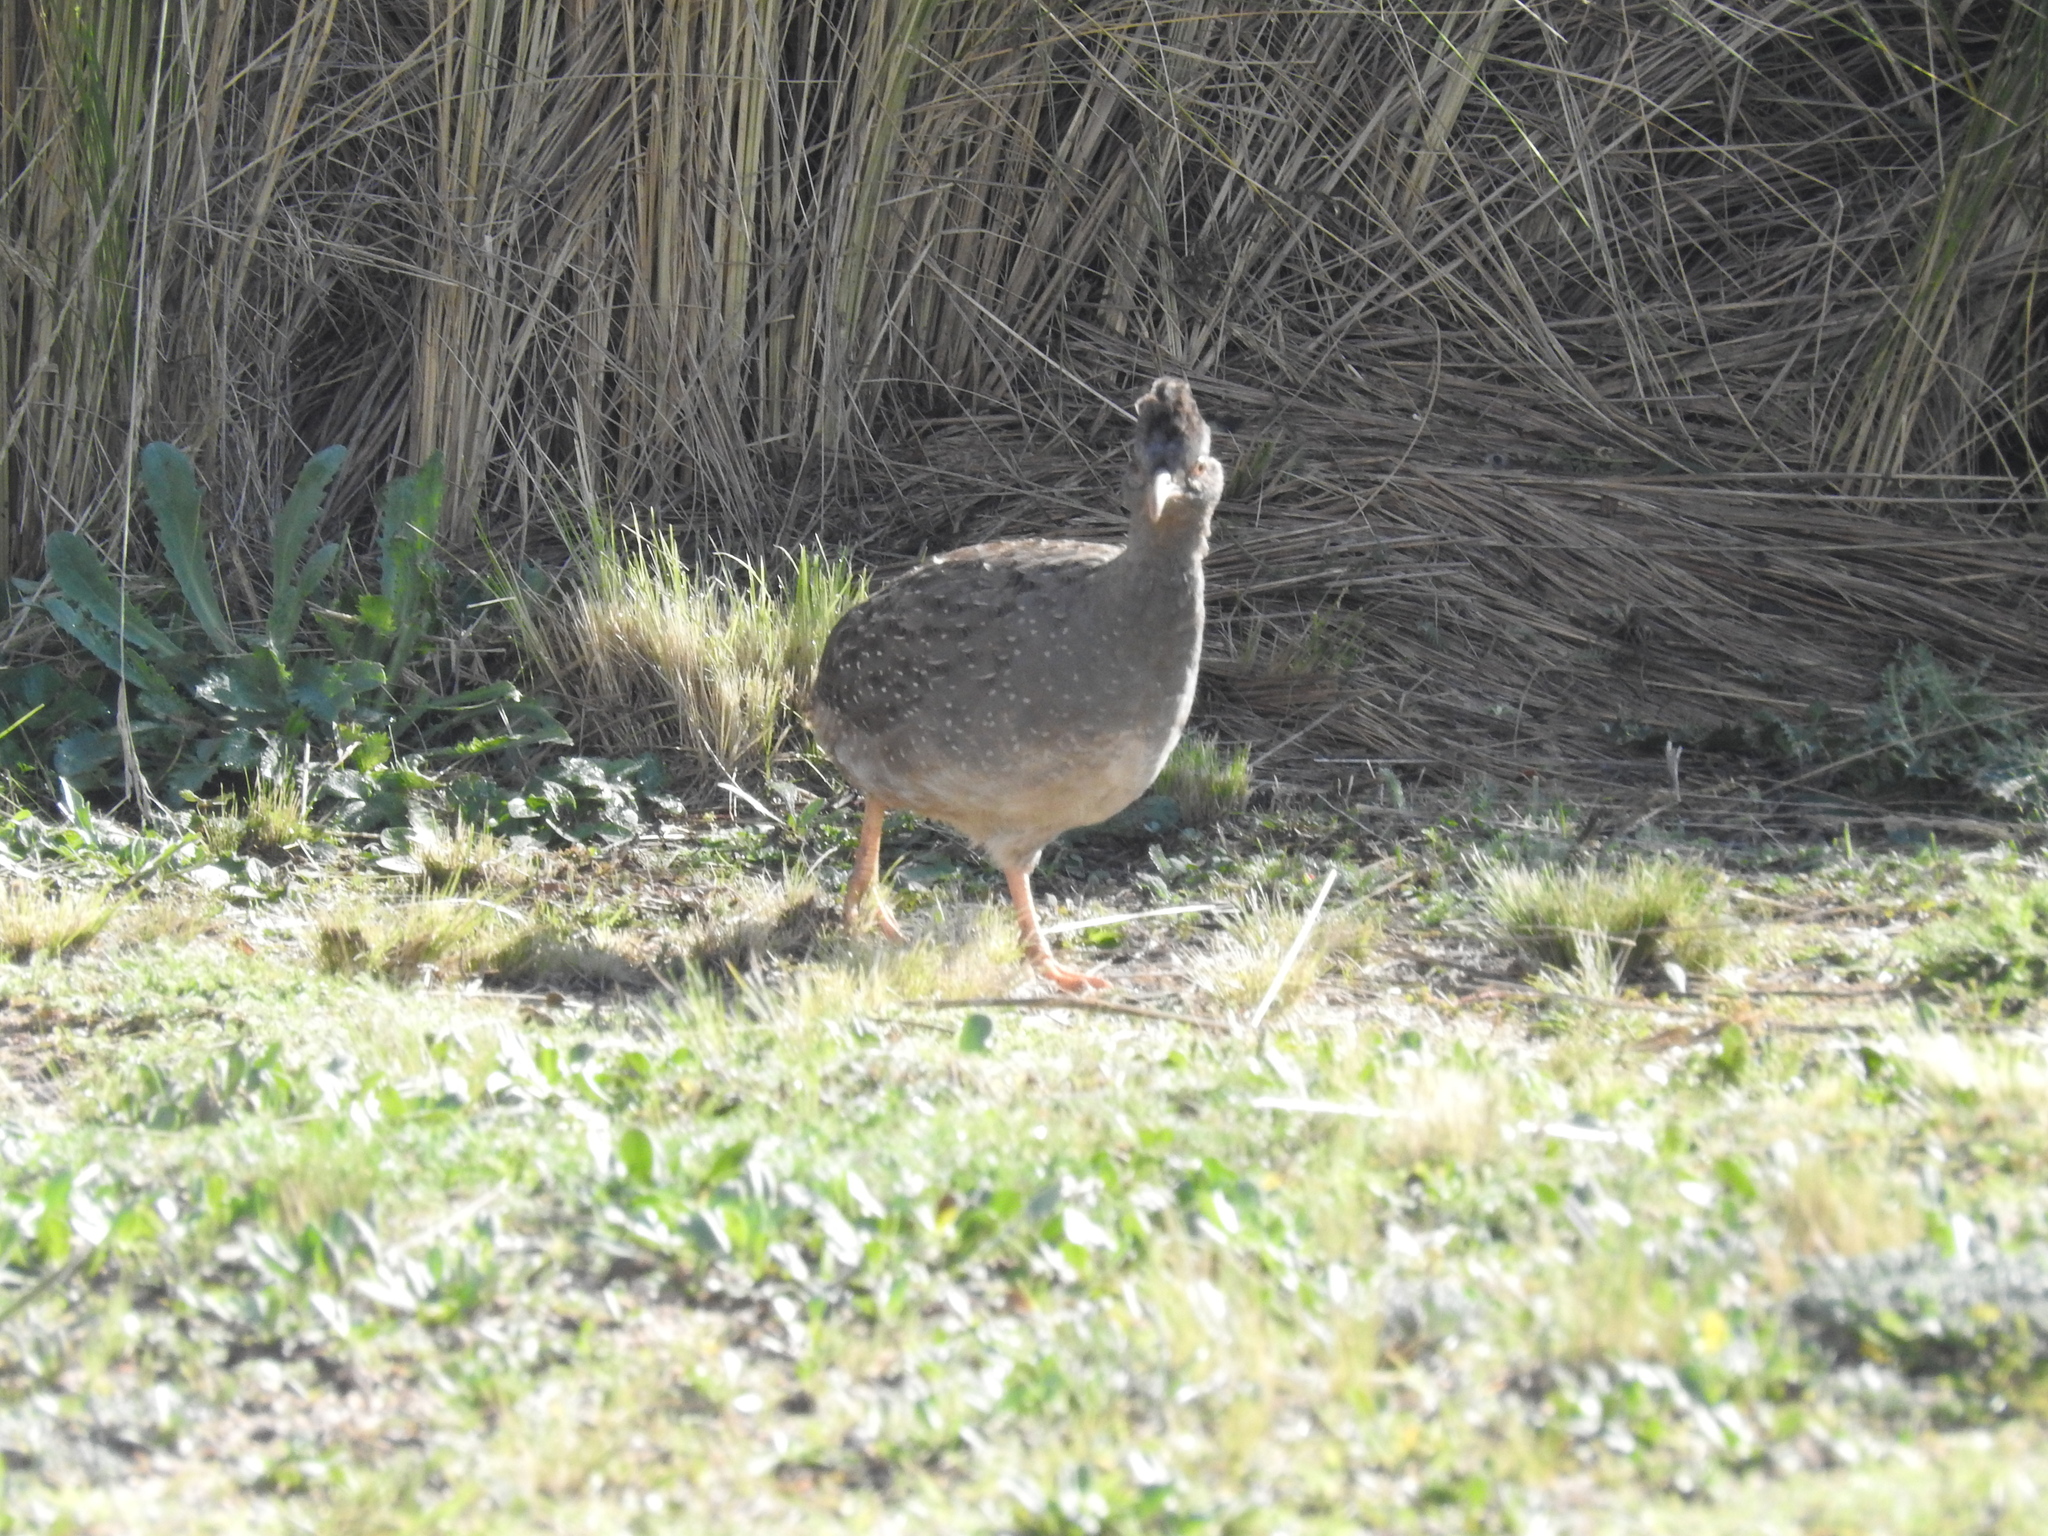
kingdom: Animalia
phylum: Chordata
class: Aves
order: Tinamiformes
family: Tinamidae
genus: Nothoprocta
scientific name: Nothoprocta pentlandii
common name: Andean tinamou
